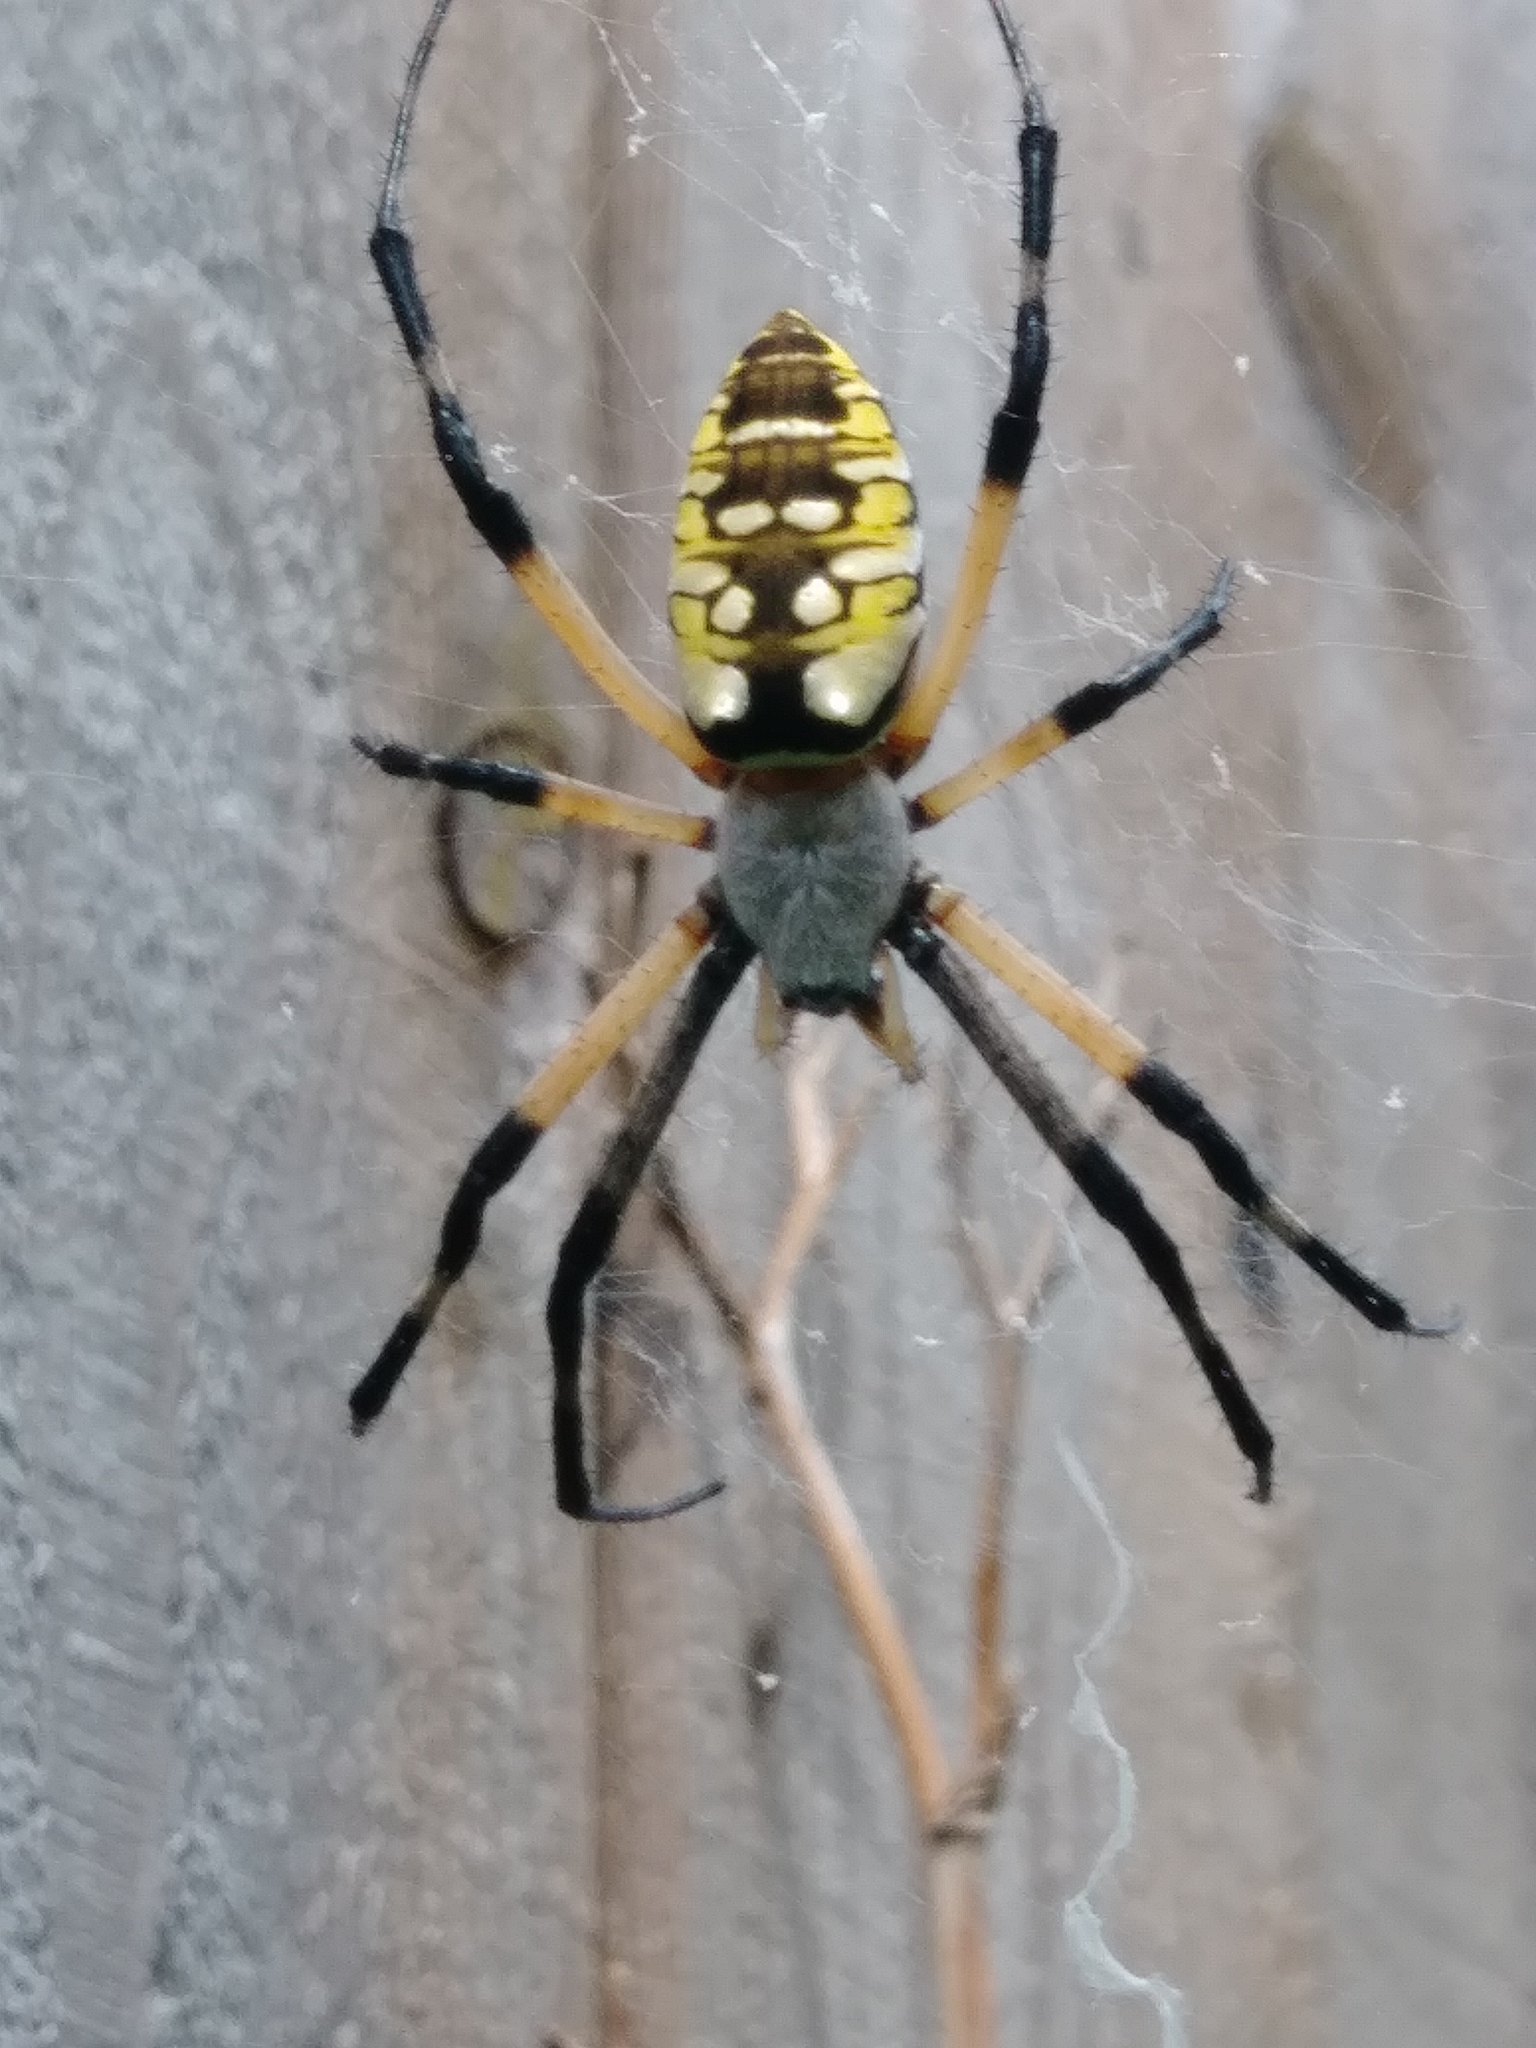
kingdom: Animalia
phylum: Arthropoda
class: Arachnida
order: Araneae
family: Araneidae
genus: Argiope
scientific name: Argiope aurantia
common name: Orb weavers
